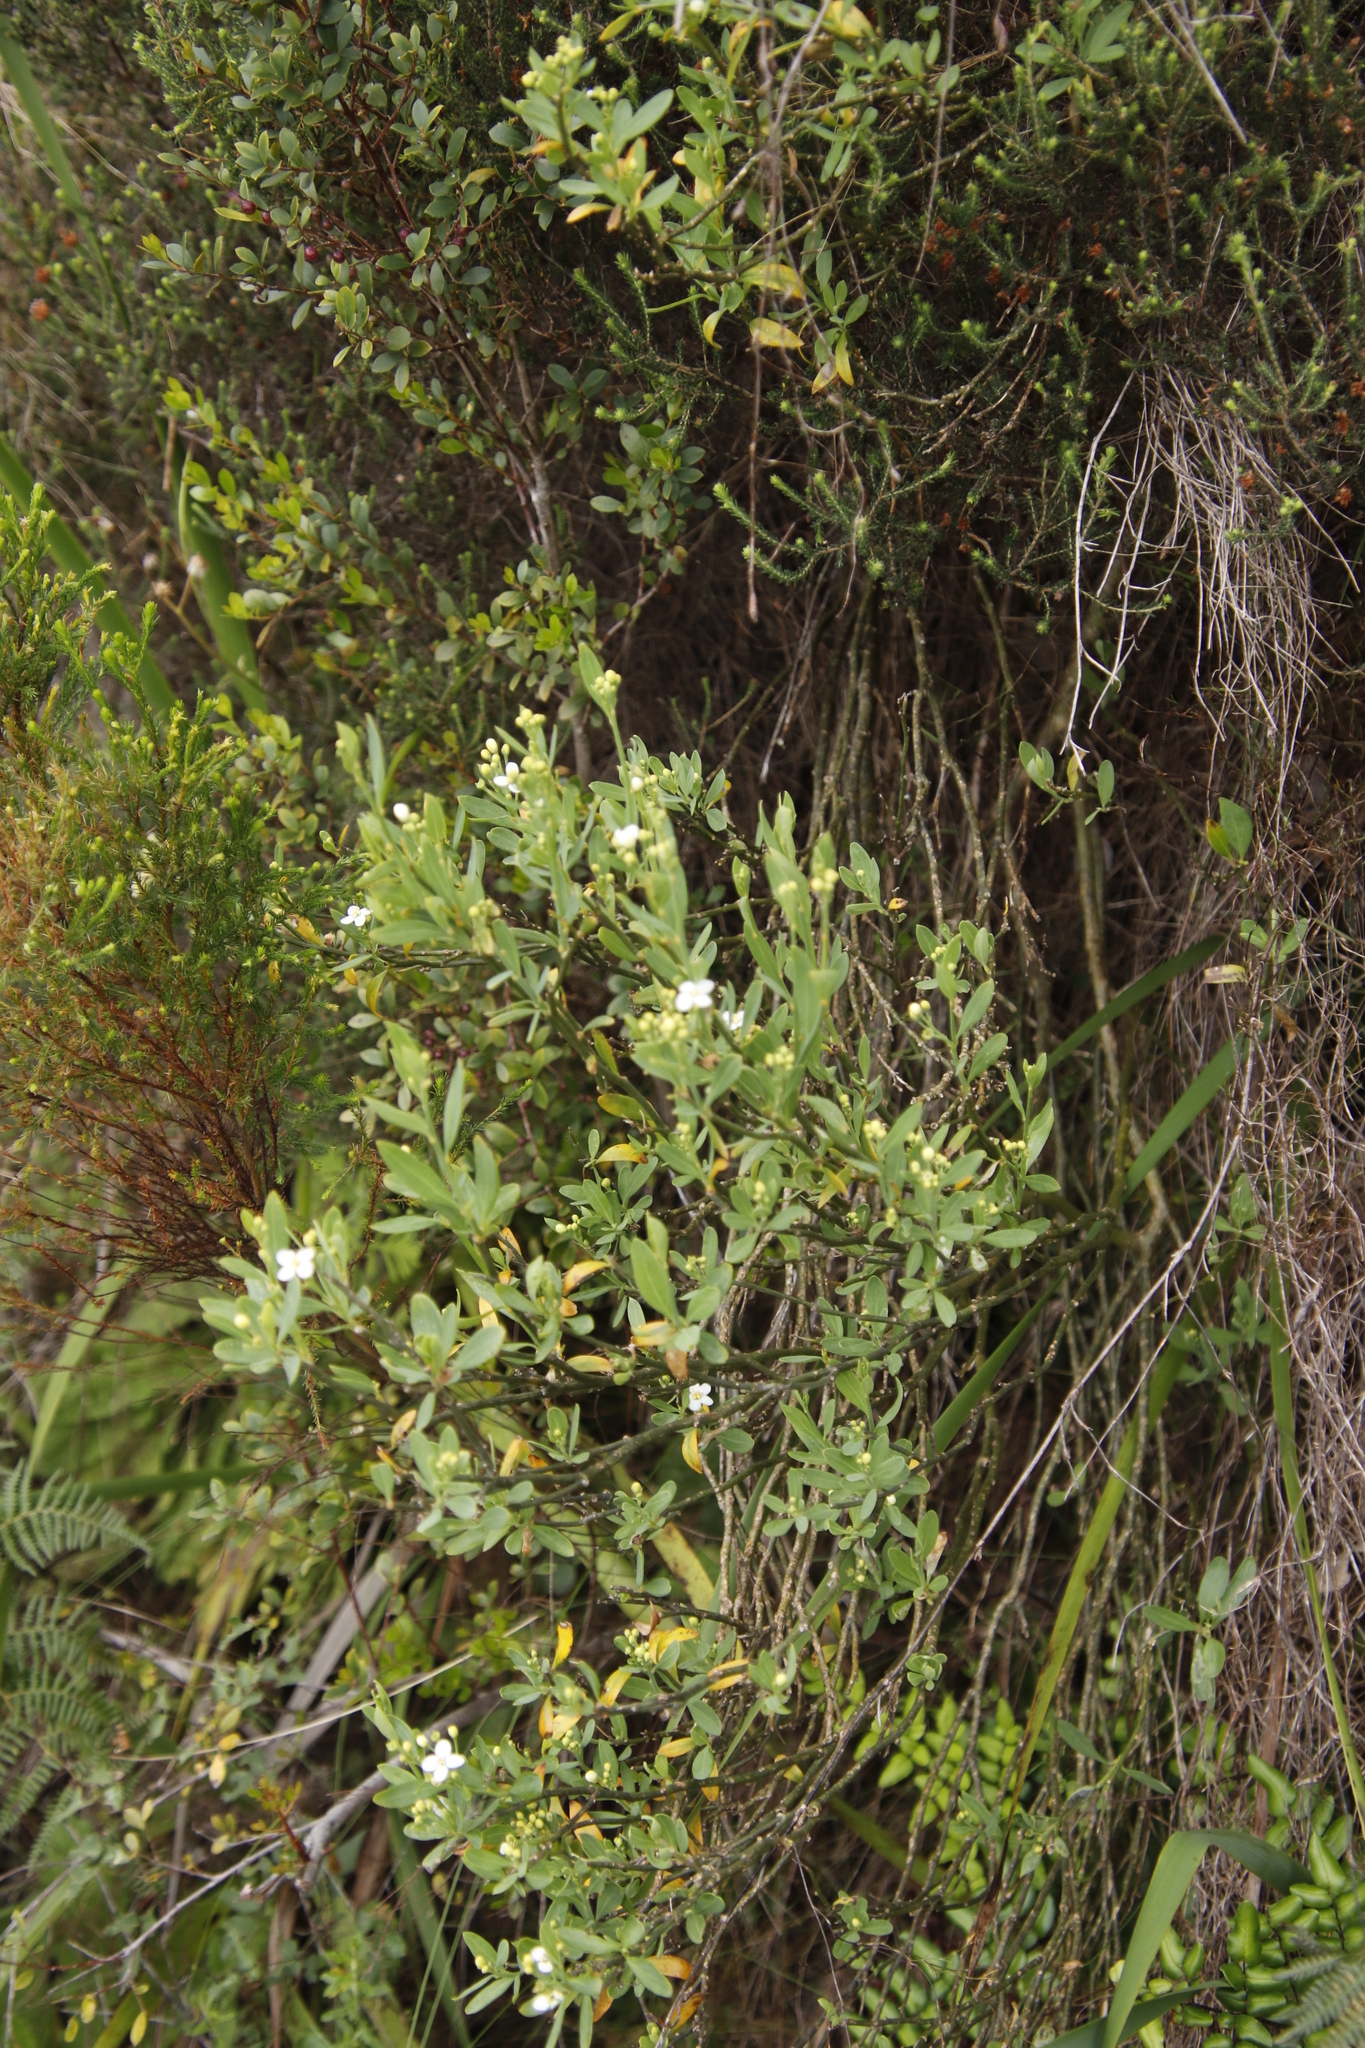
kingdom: Plantae
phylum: Tracheophyta
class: Magnoliopsida
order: Solanales
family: Montiniaceae
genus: Montinia
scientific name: Montinia caryophyllacea
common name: Wild clove-bush
